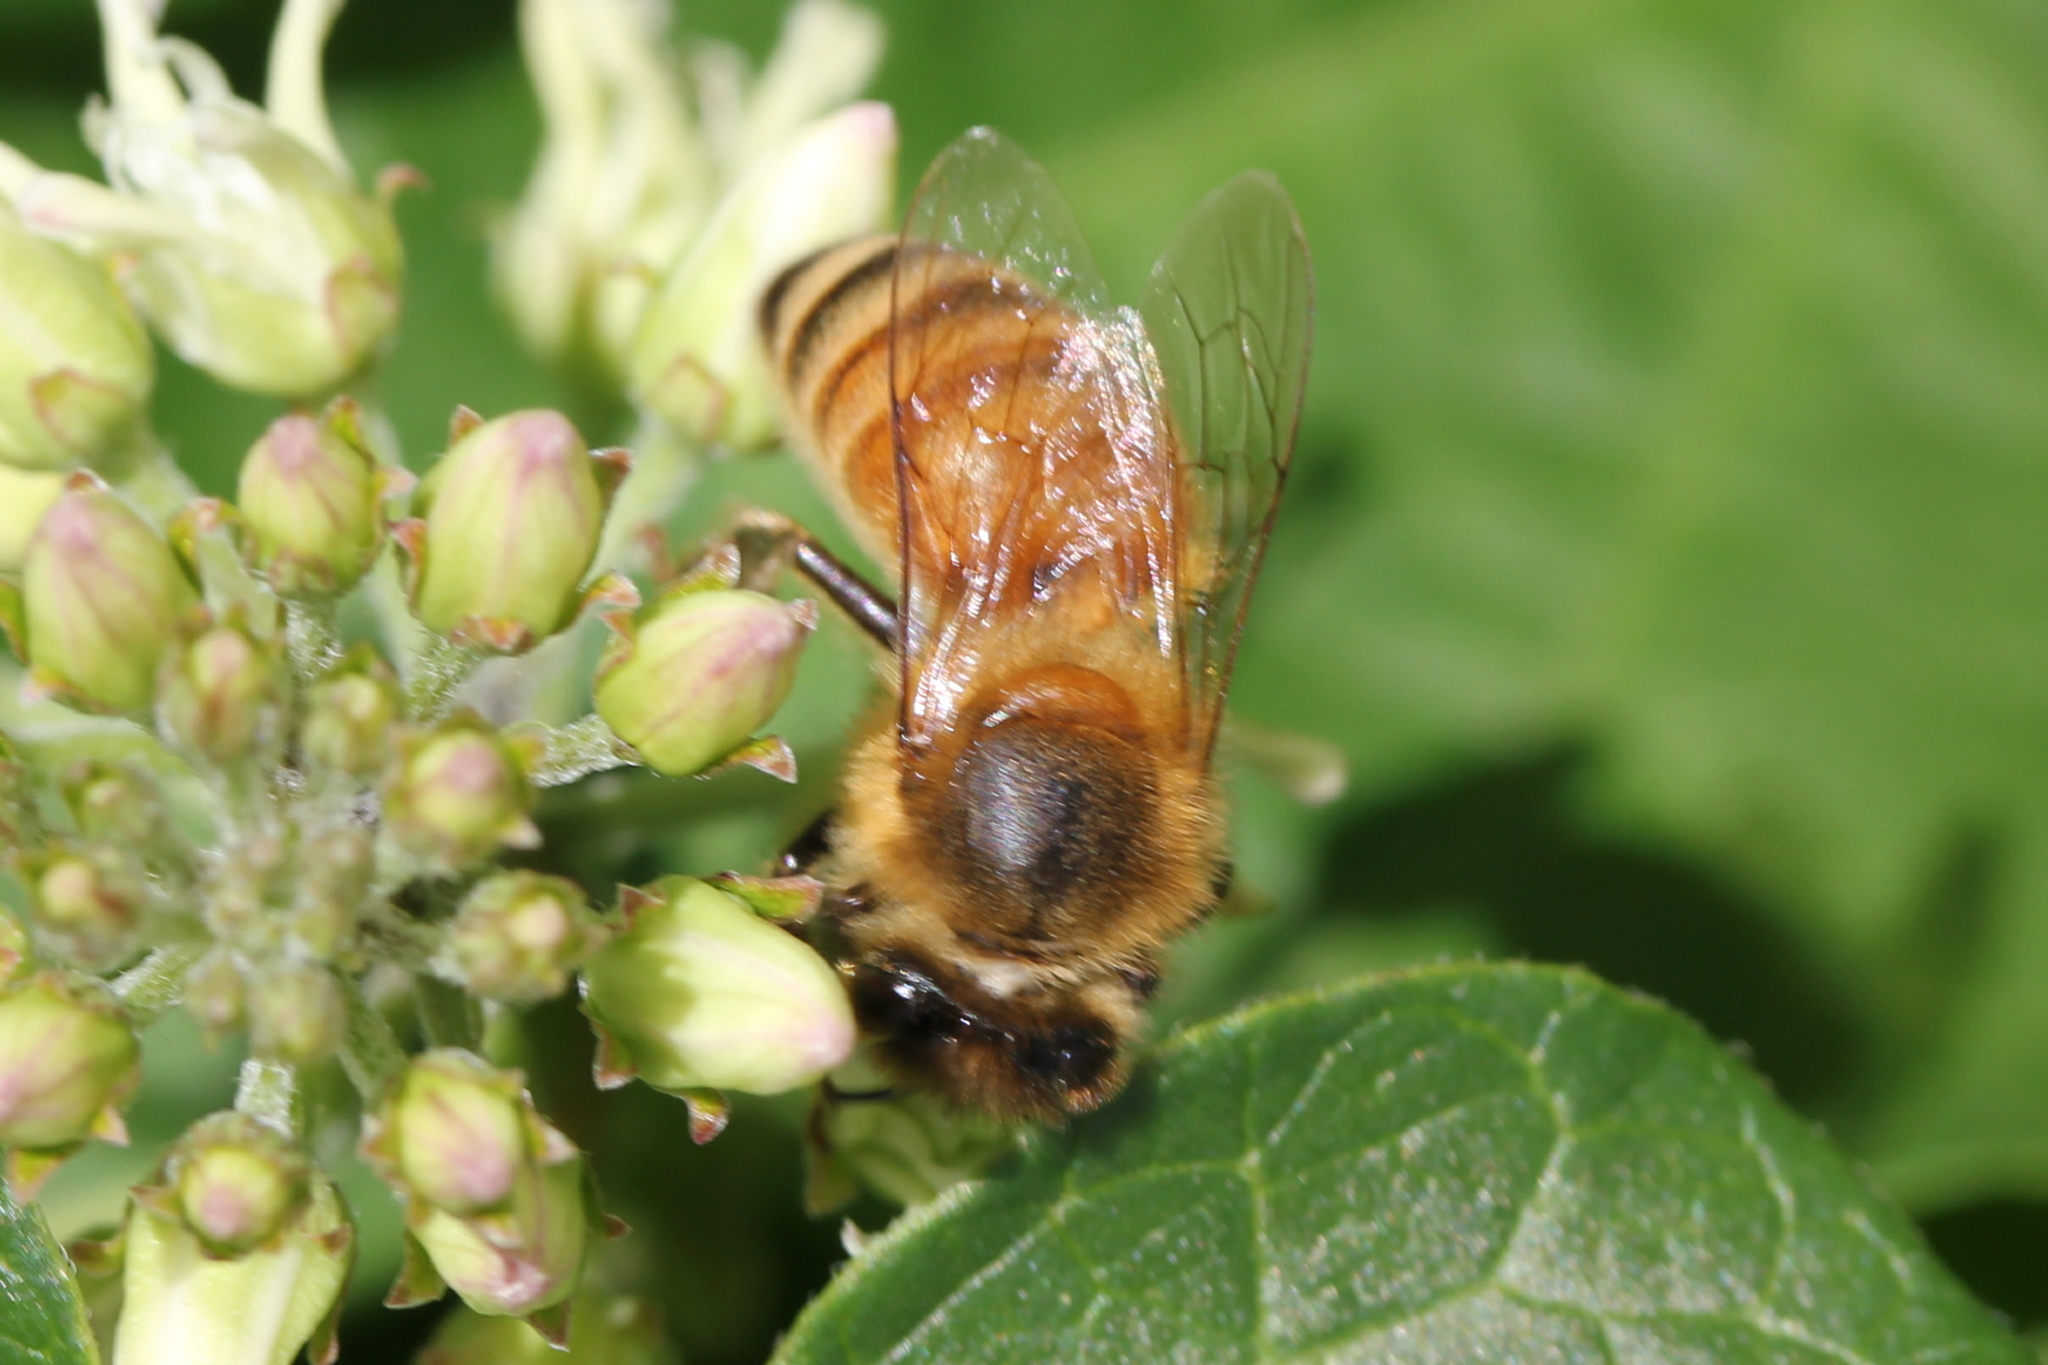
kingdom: Animalia
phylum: Arthropoda
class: Insecta
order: Hymenoptera
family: Apidae
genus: Apis
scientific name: Apis mellifera
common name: Honey bee
